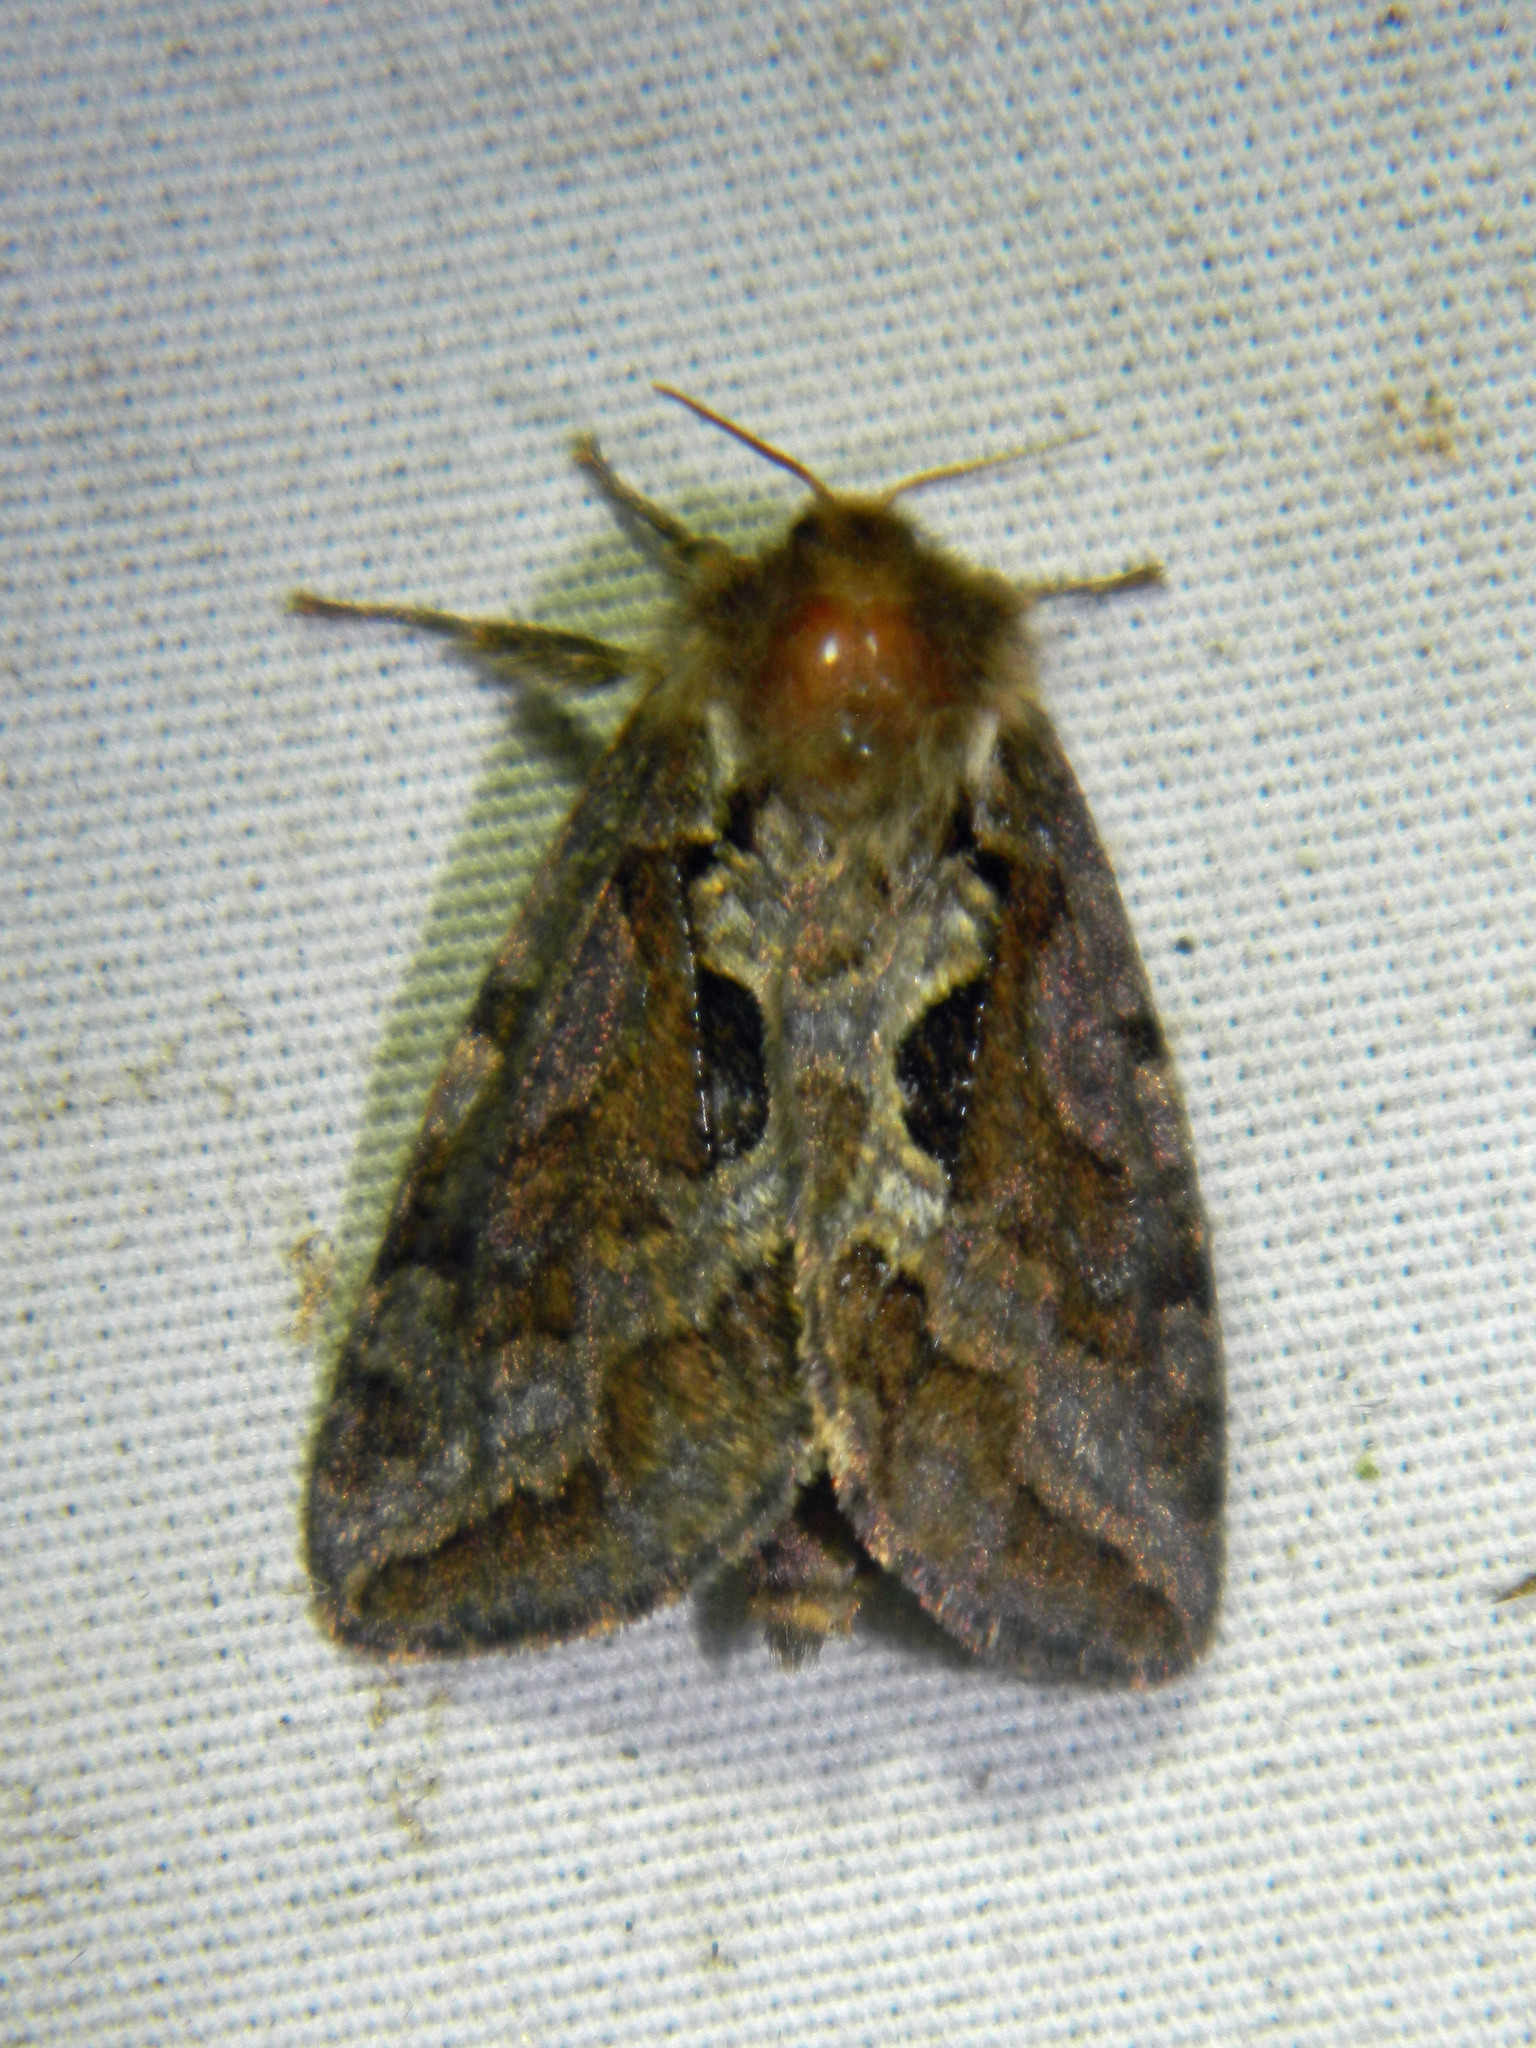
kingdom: Animalia
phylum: Arthropoda
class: Insecta
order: Lepidoptera
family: Hepialidae
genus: Korscheltellus
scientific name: Korscheltellus gracilis
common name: Conifer swift moth
